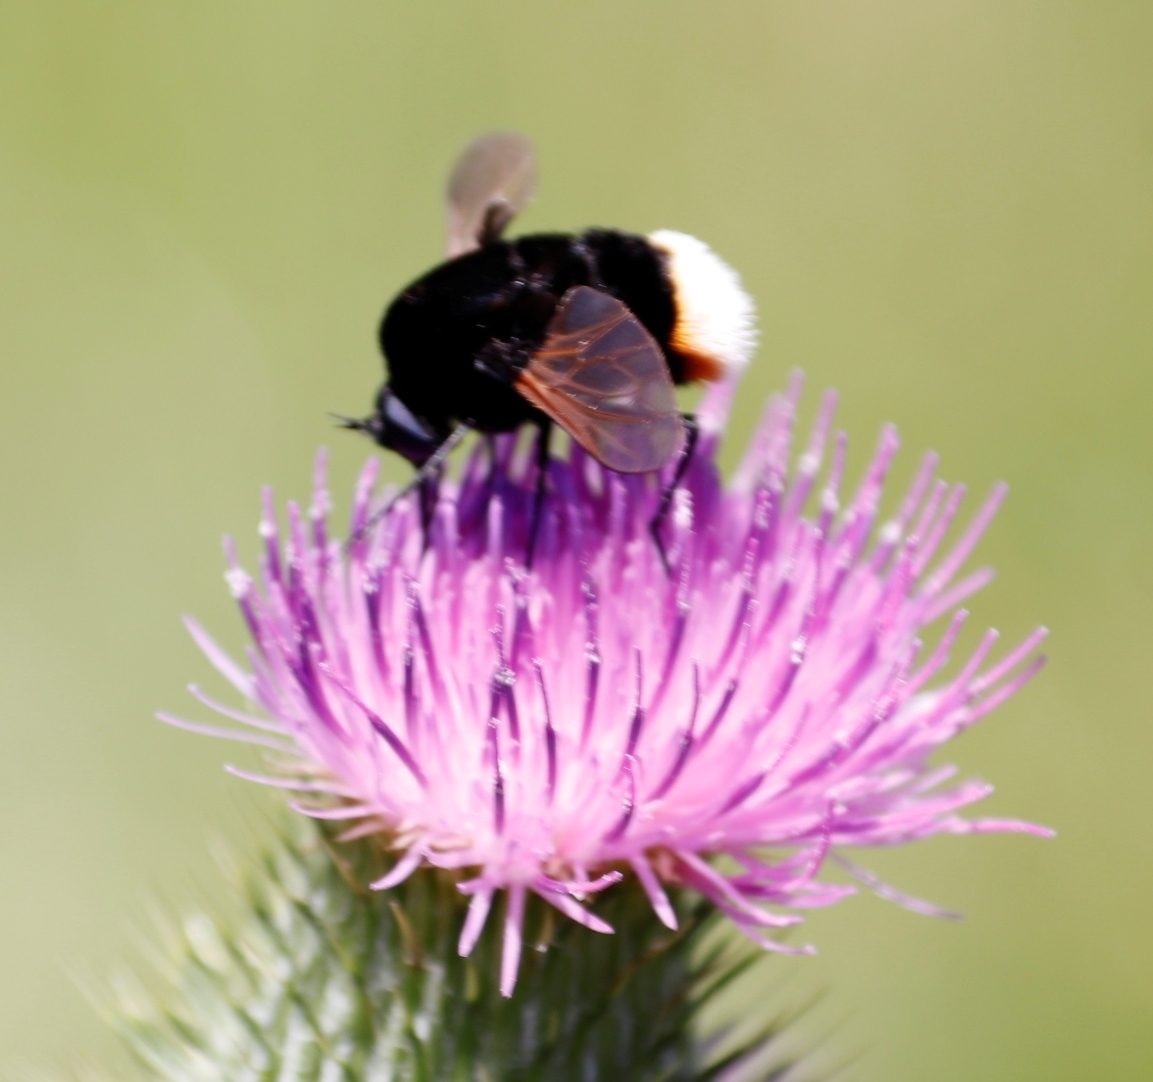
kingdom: Animalia
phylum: Arthropoda
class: Insecta
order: Diptera
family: Bombyliidae
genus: Bombomyia
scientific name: Bombomyia discoidea
